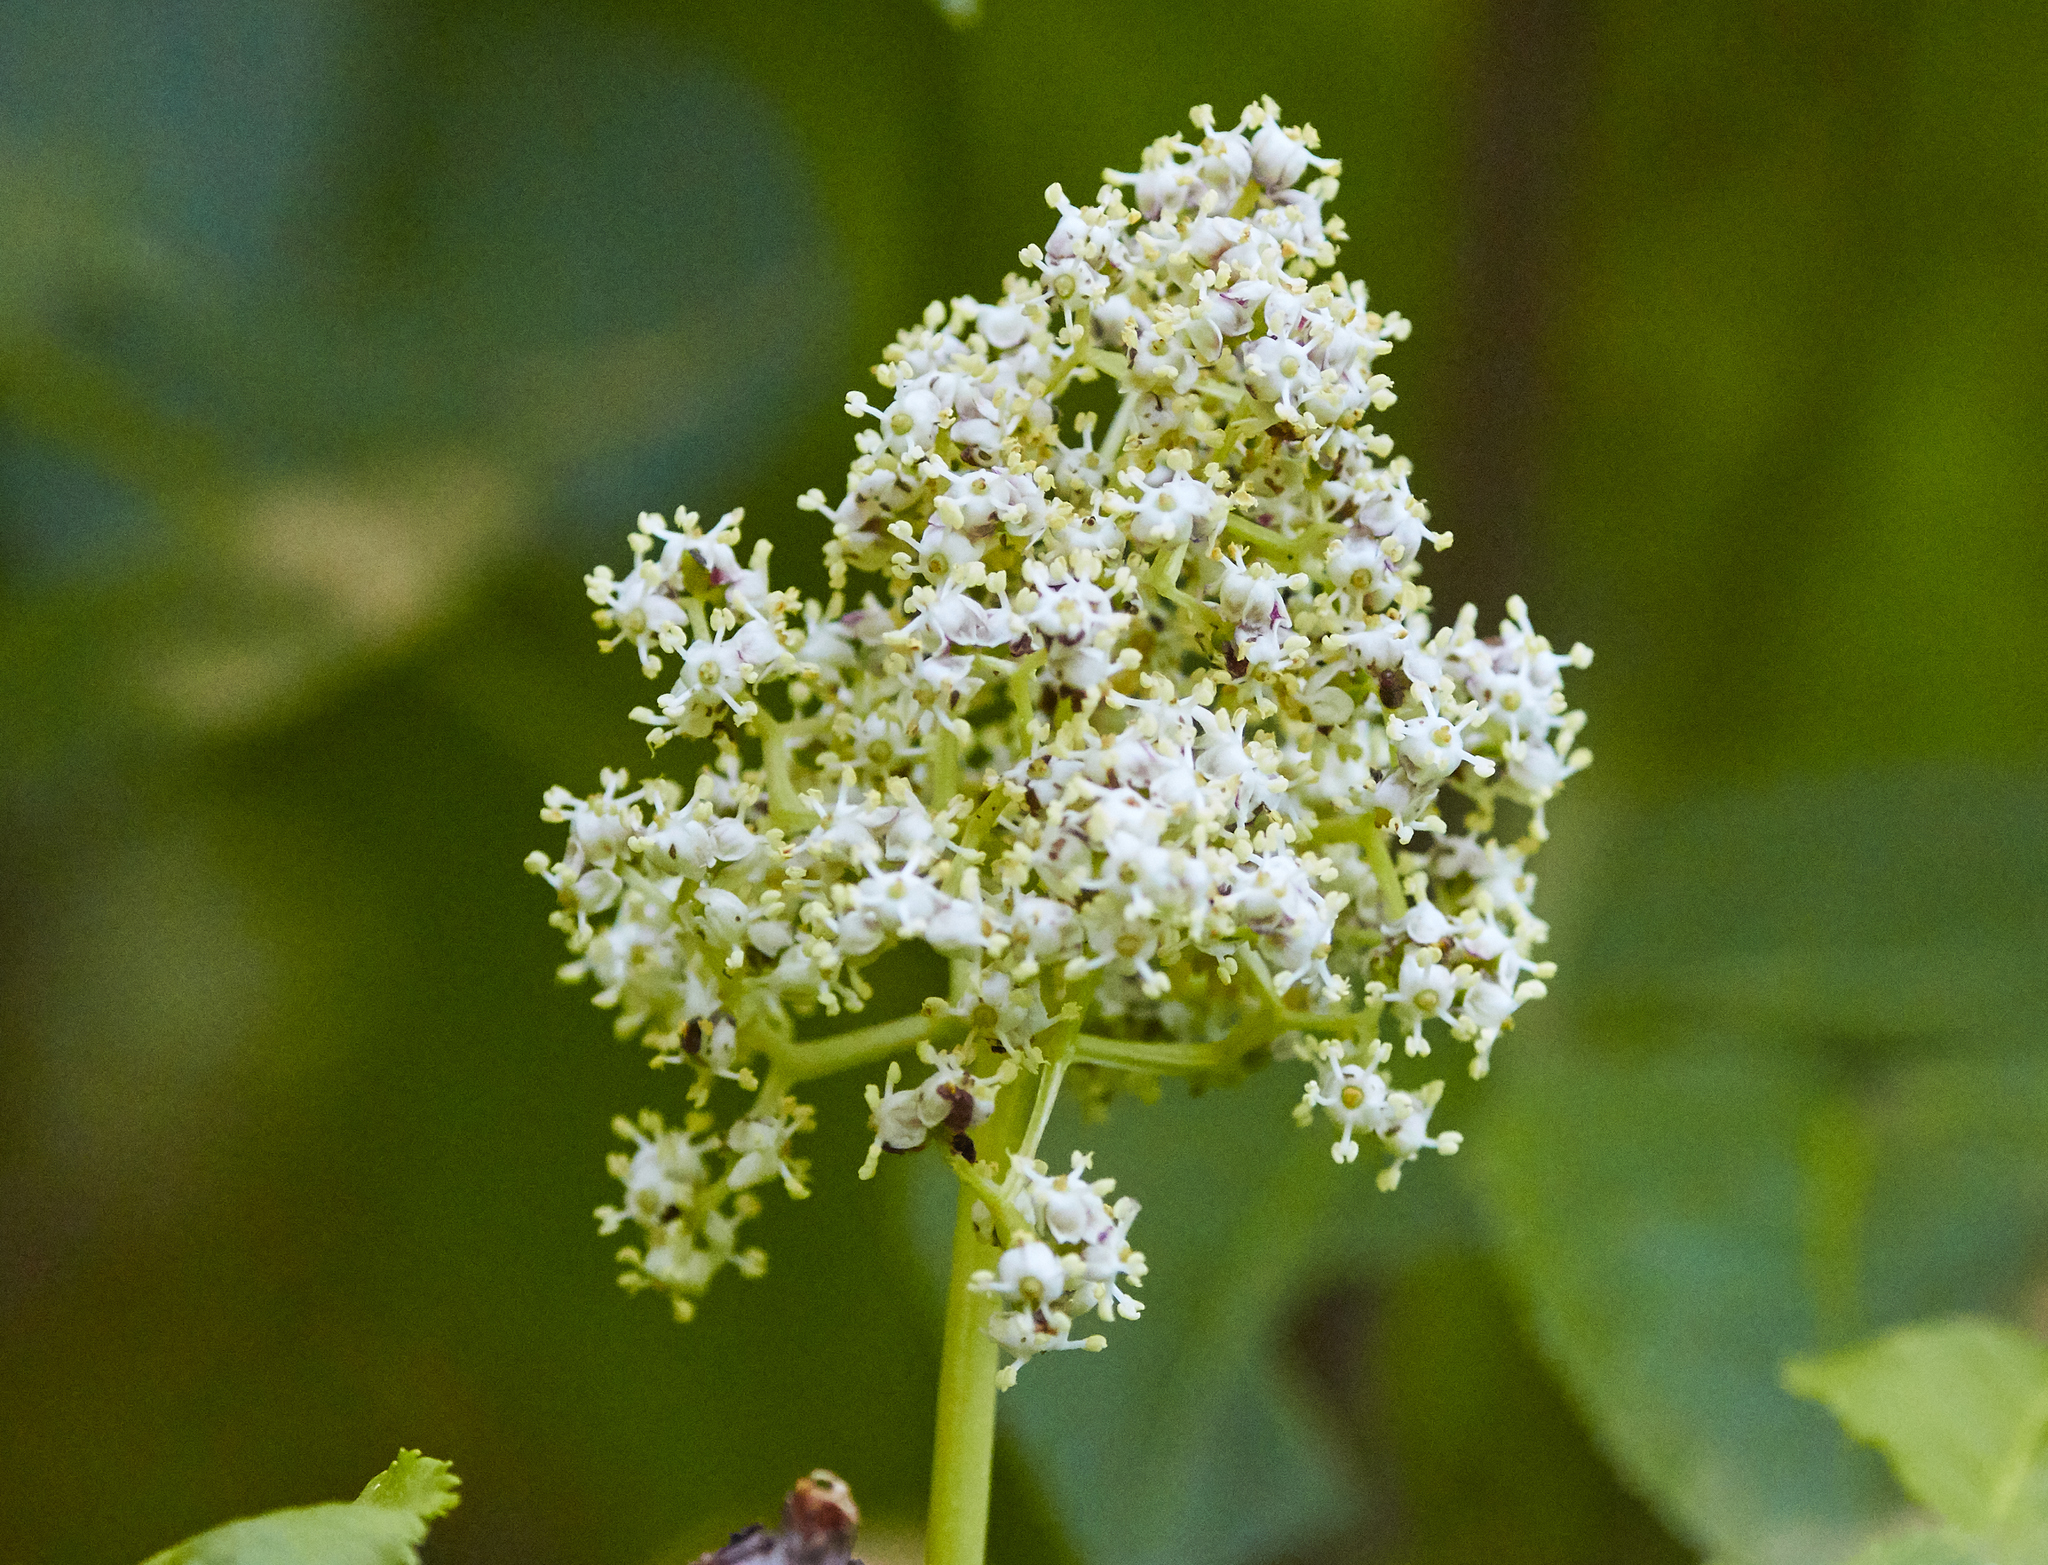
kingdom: Plantae
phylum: Tracheophyta
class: Magnoliopsida
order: Dipsacales
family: Viburnaceae
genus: Sambucus
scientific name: Sambucus racemosa
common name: Red-berried elder
